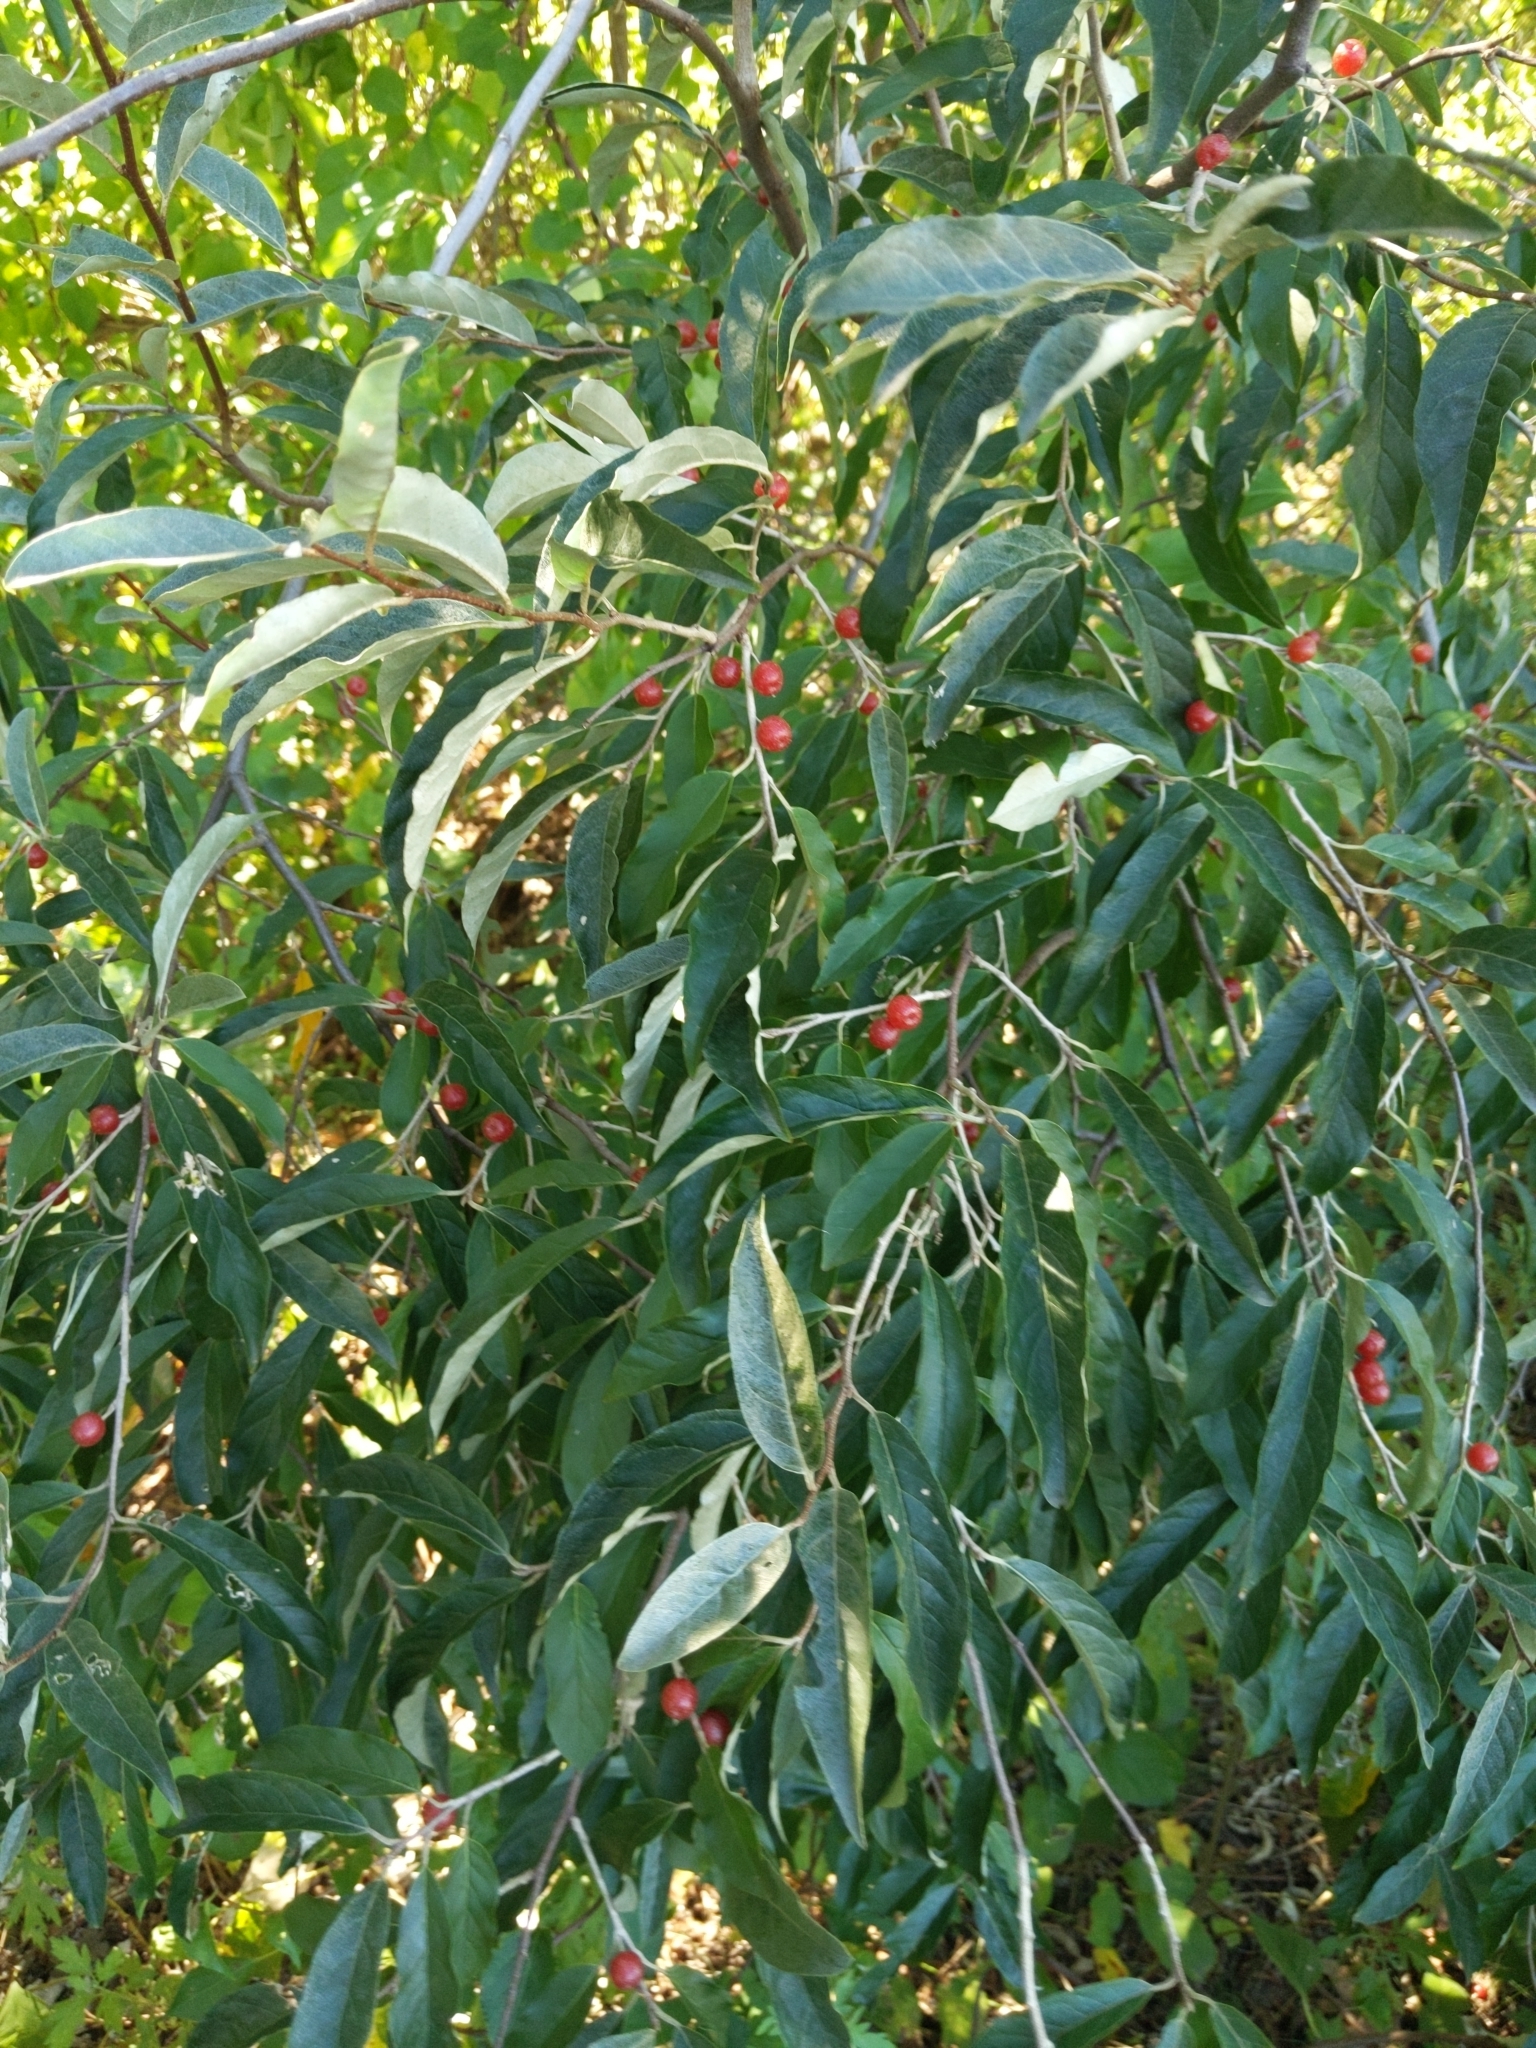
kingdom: Plantae
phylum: Tracheophyta
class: Magnoliopsida
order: Rosales
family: Elaeagnaceae
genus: Elaeagnus
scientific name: Elaeagnus umbellata
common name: Autumn olive
